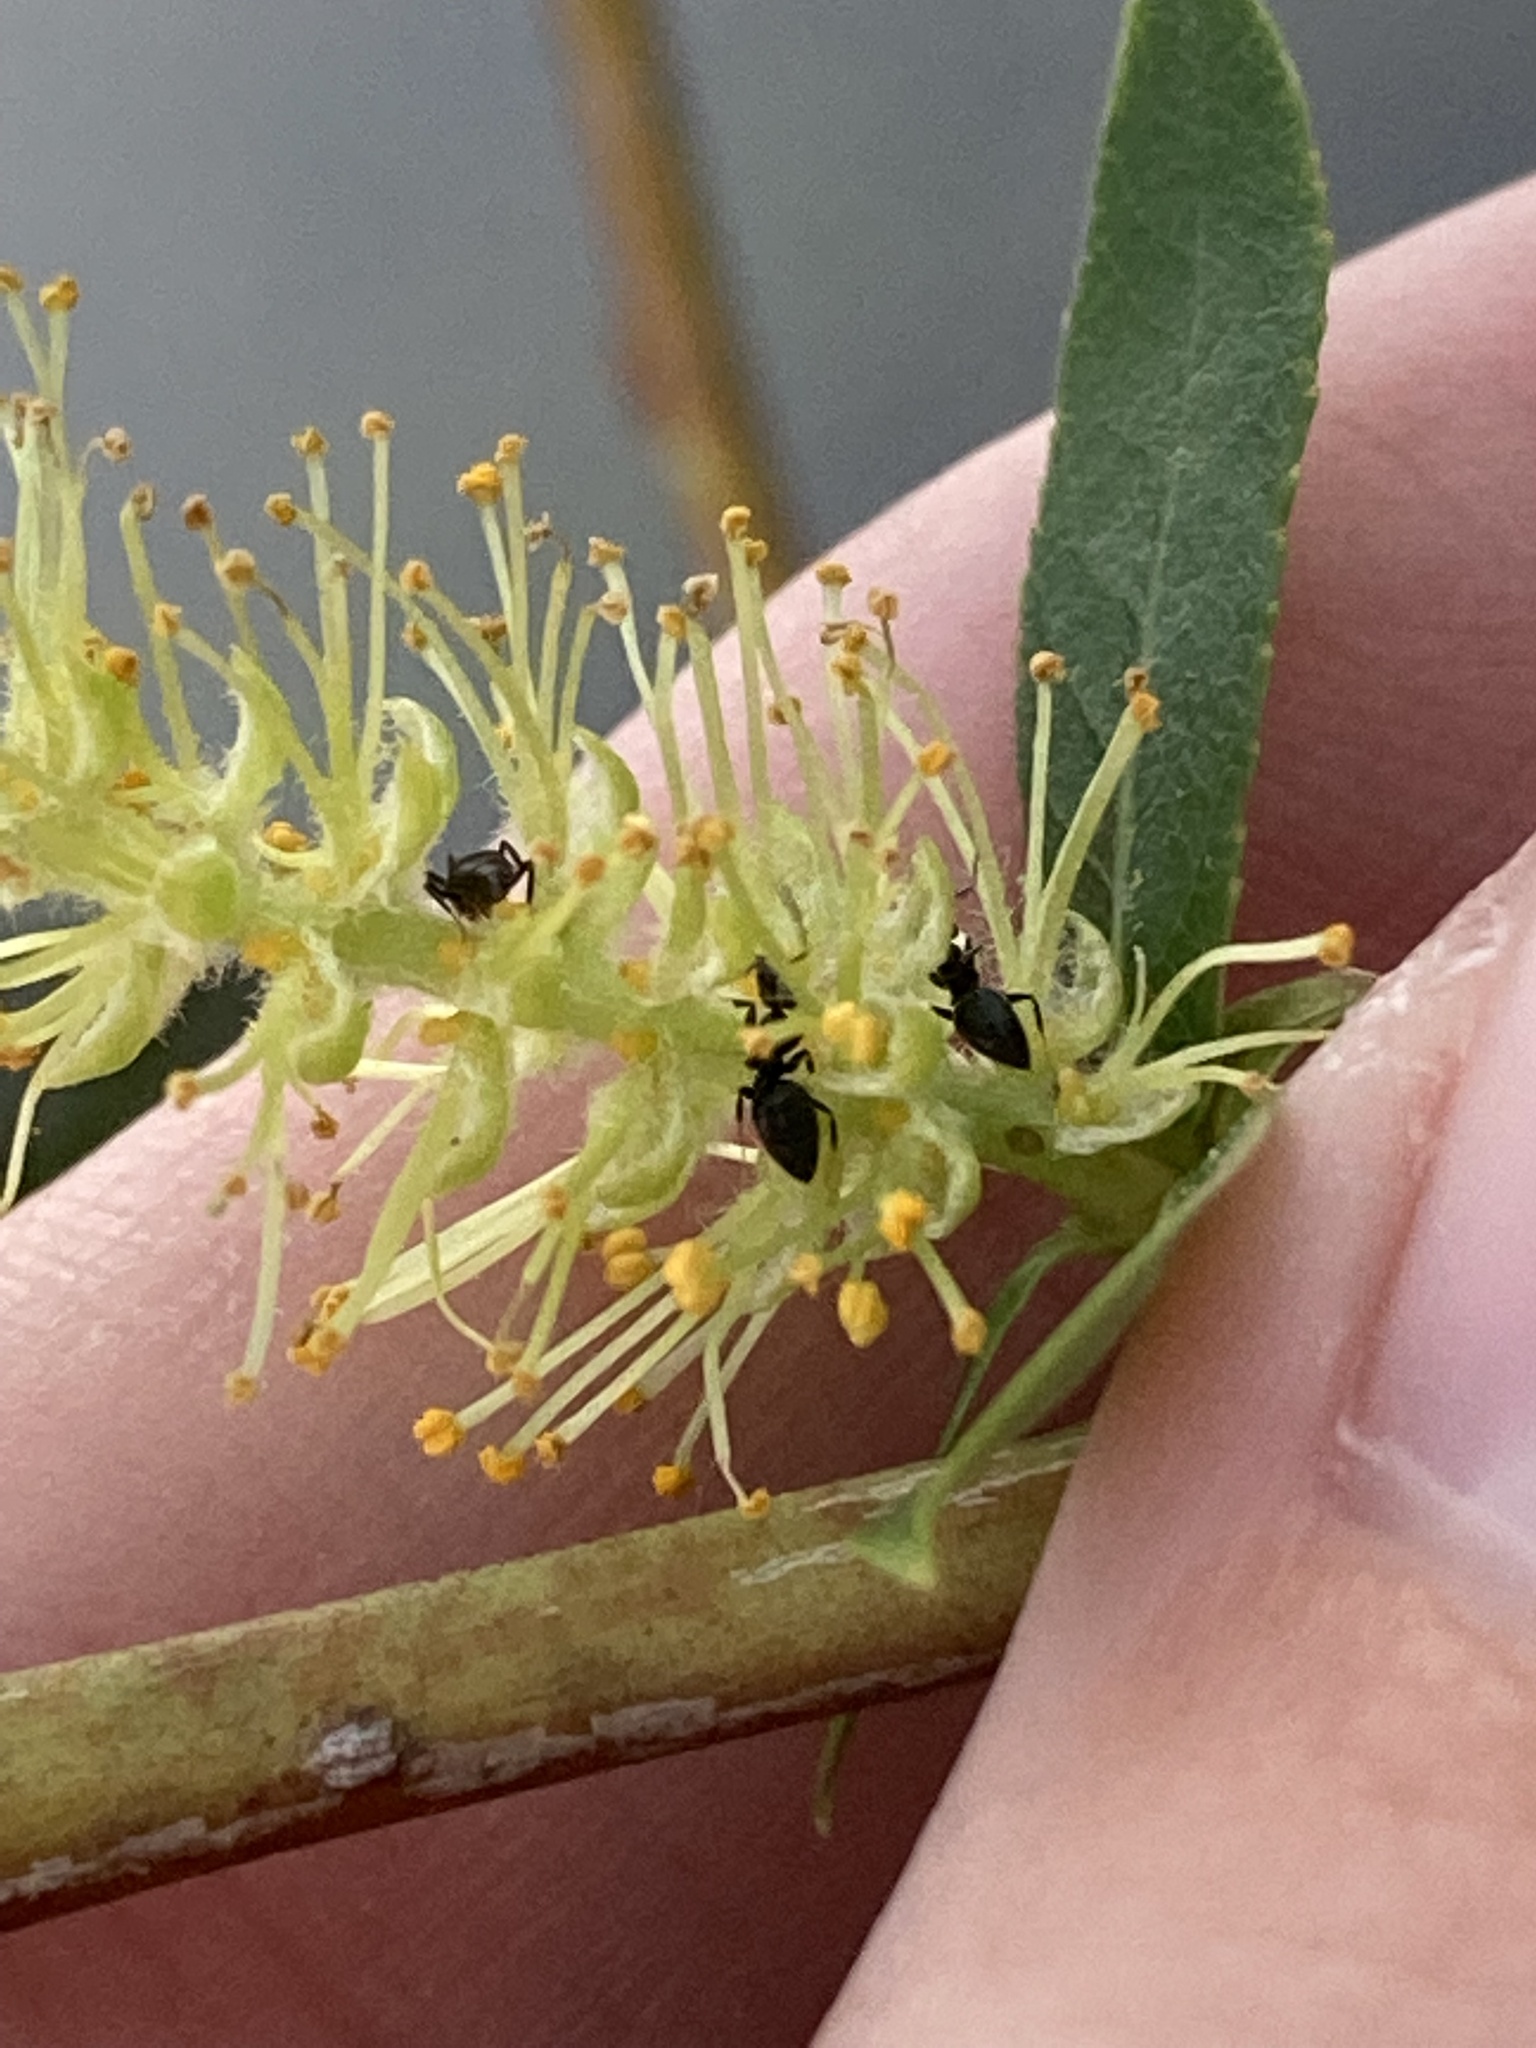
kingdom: Animalia
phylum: Arthropoda
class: Insecta
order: Hymenoptera
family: Formicidae
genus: Technomyrmex
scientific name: Technomyrmex difficilis
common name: Ant
